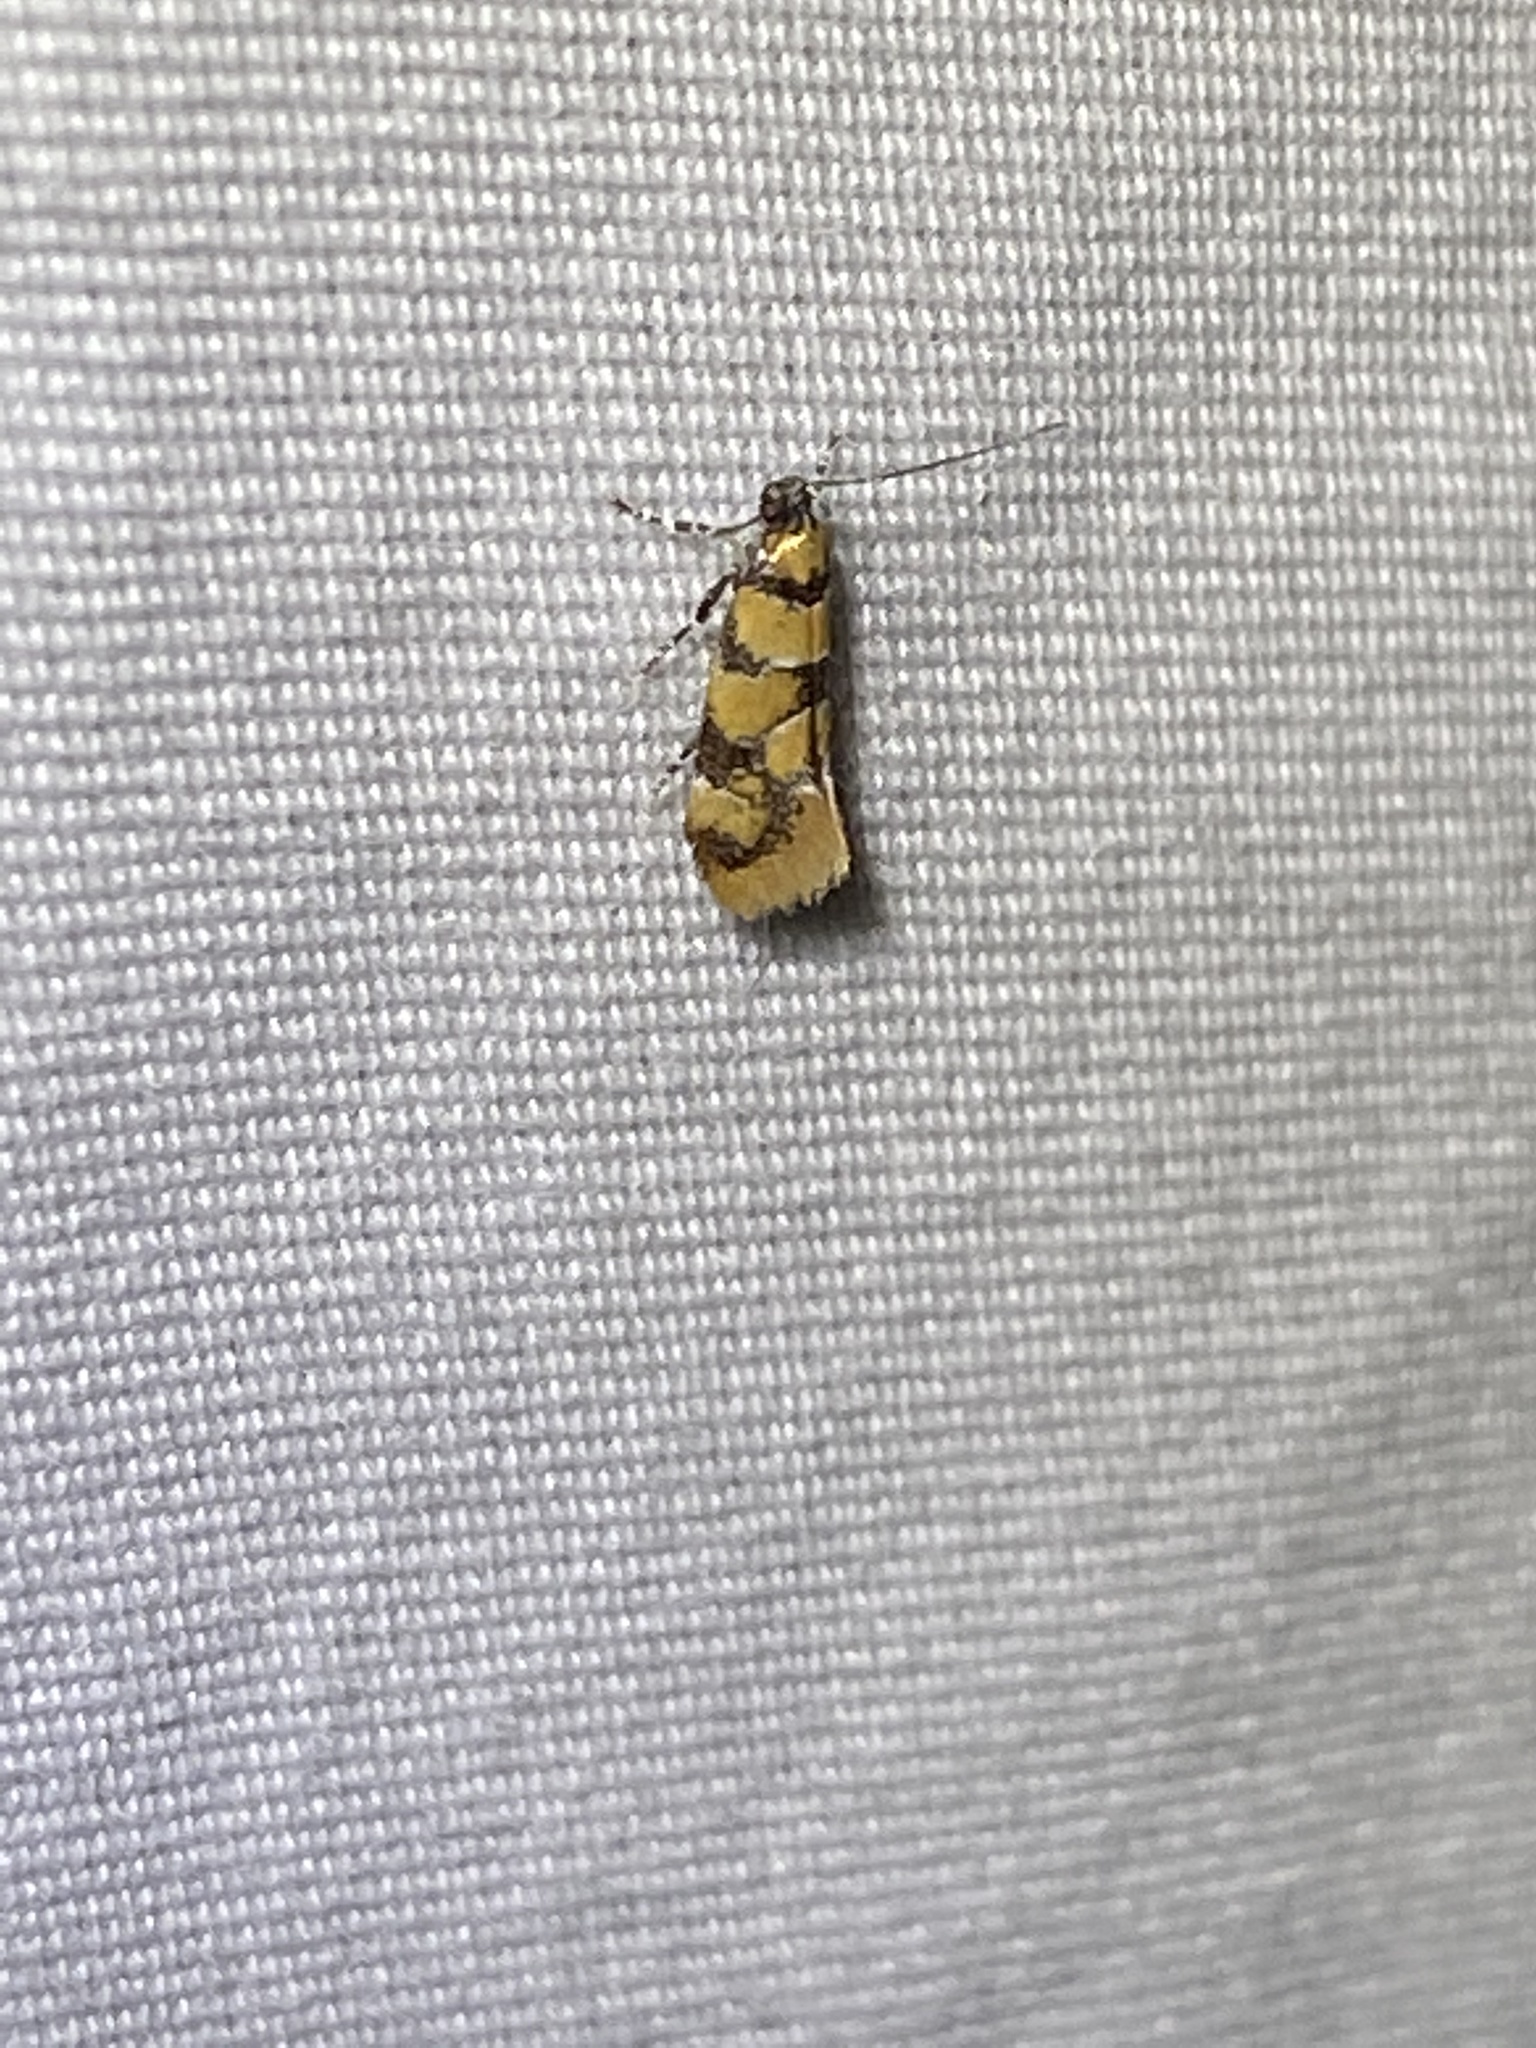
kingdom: Animalia
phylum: Arthropoda
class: Insecta
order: Lepidoptera
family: Oecophoridae
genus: Decantha
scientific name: Decantha borkhausenii
